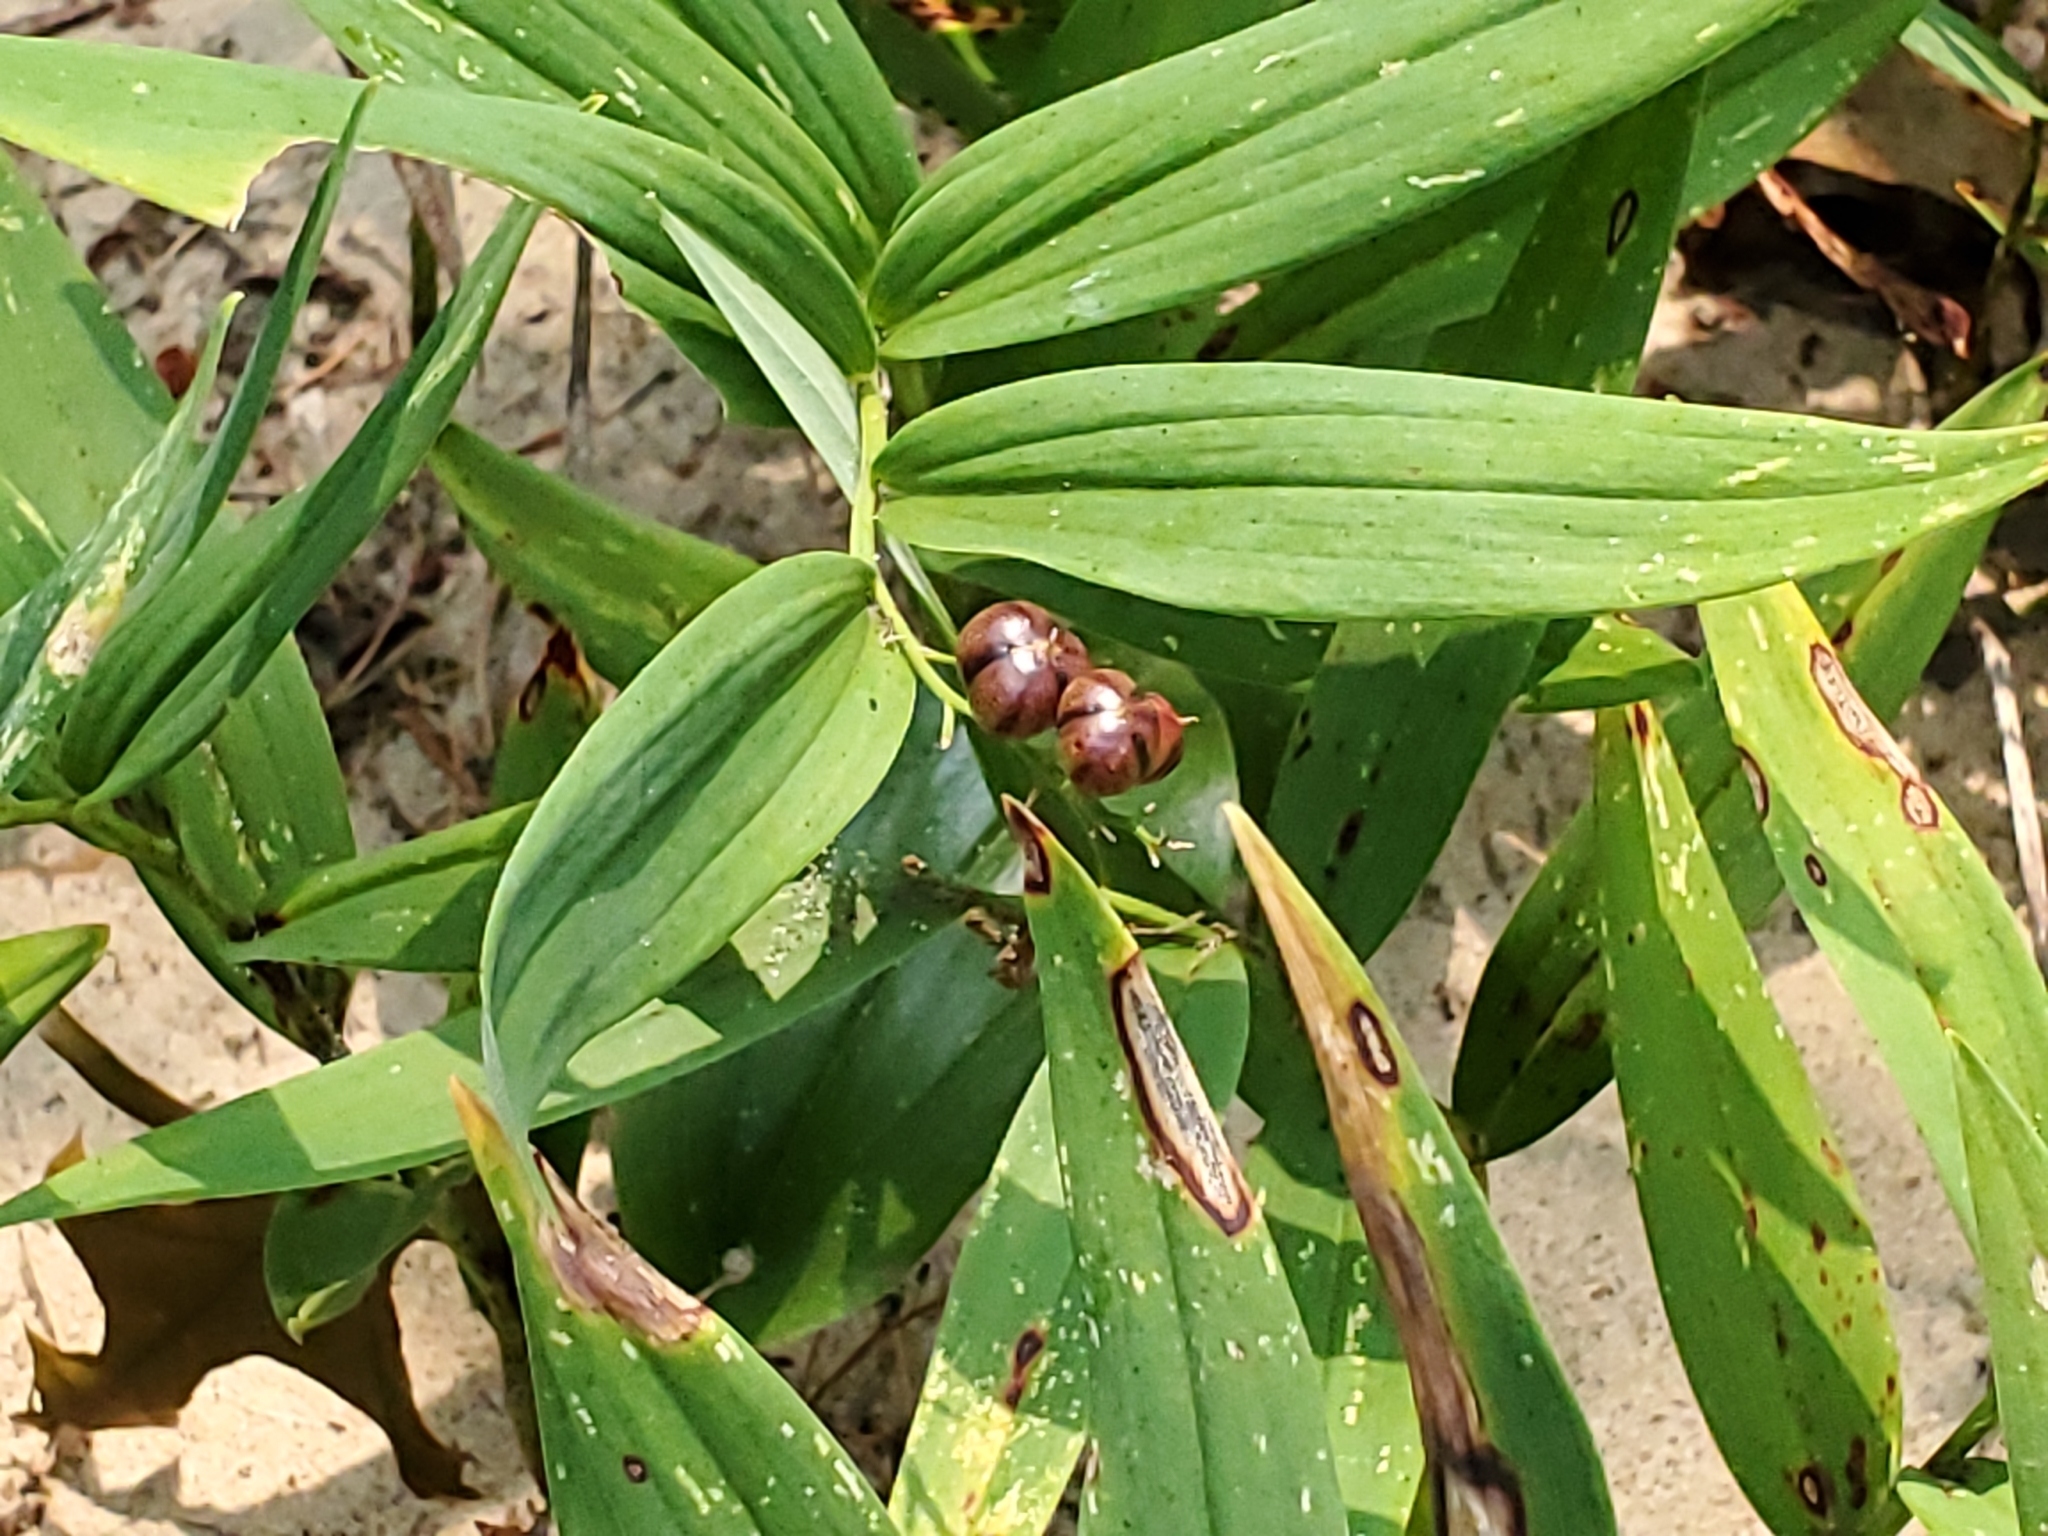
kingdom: Plantae
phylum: Tracheophyta
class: Liliopsida
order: Asparagales
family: Asparagaceae
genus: Maianthemum
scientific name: Maianthemum stellatum
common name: Little false solomon's seal
